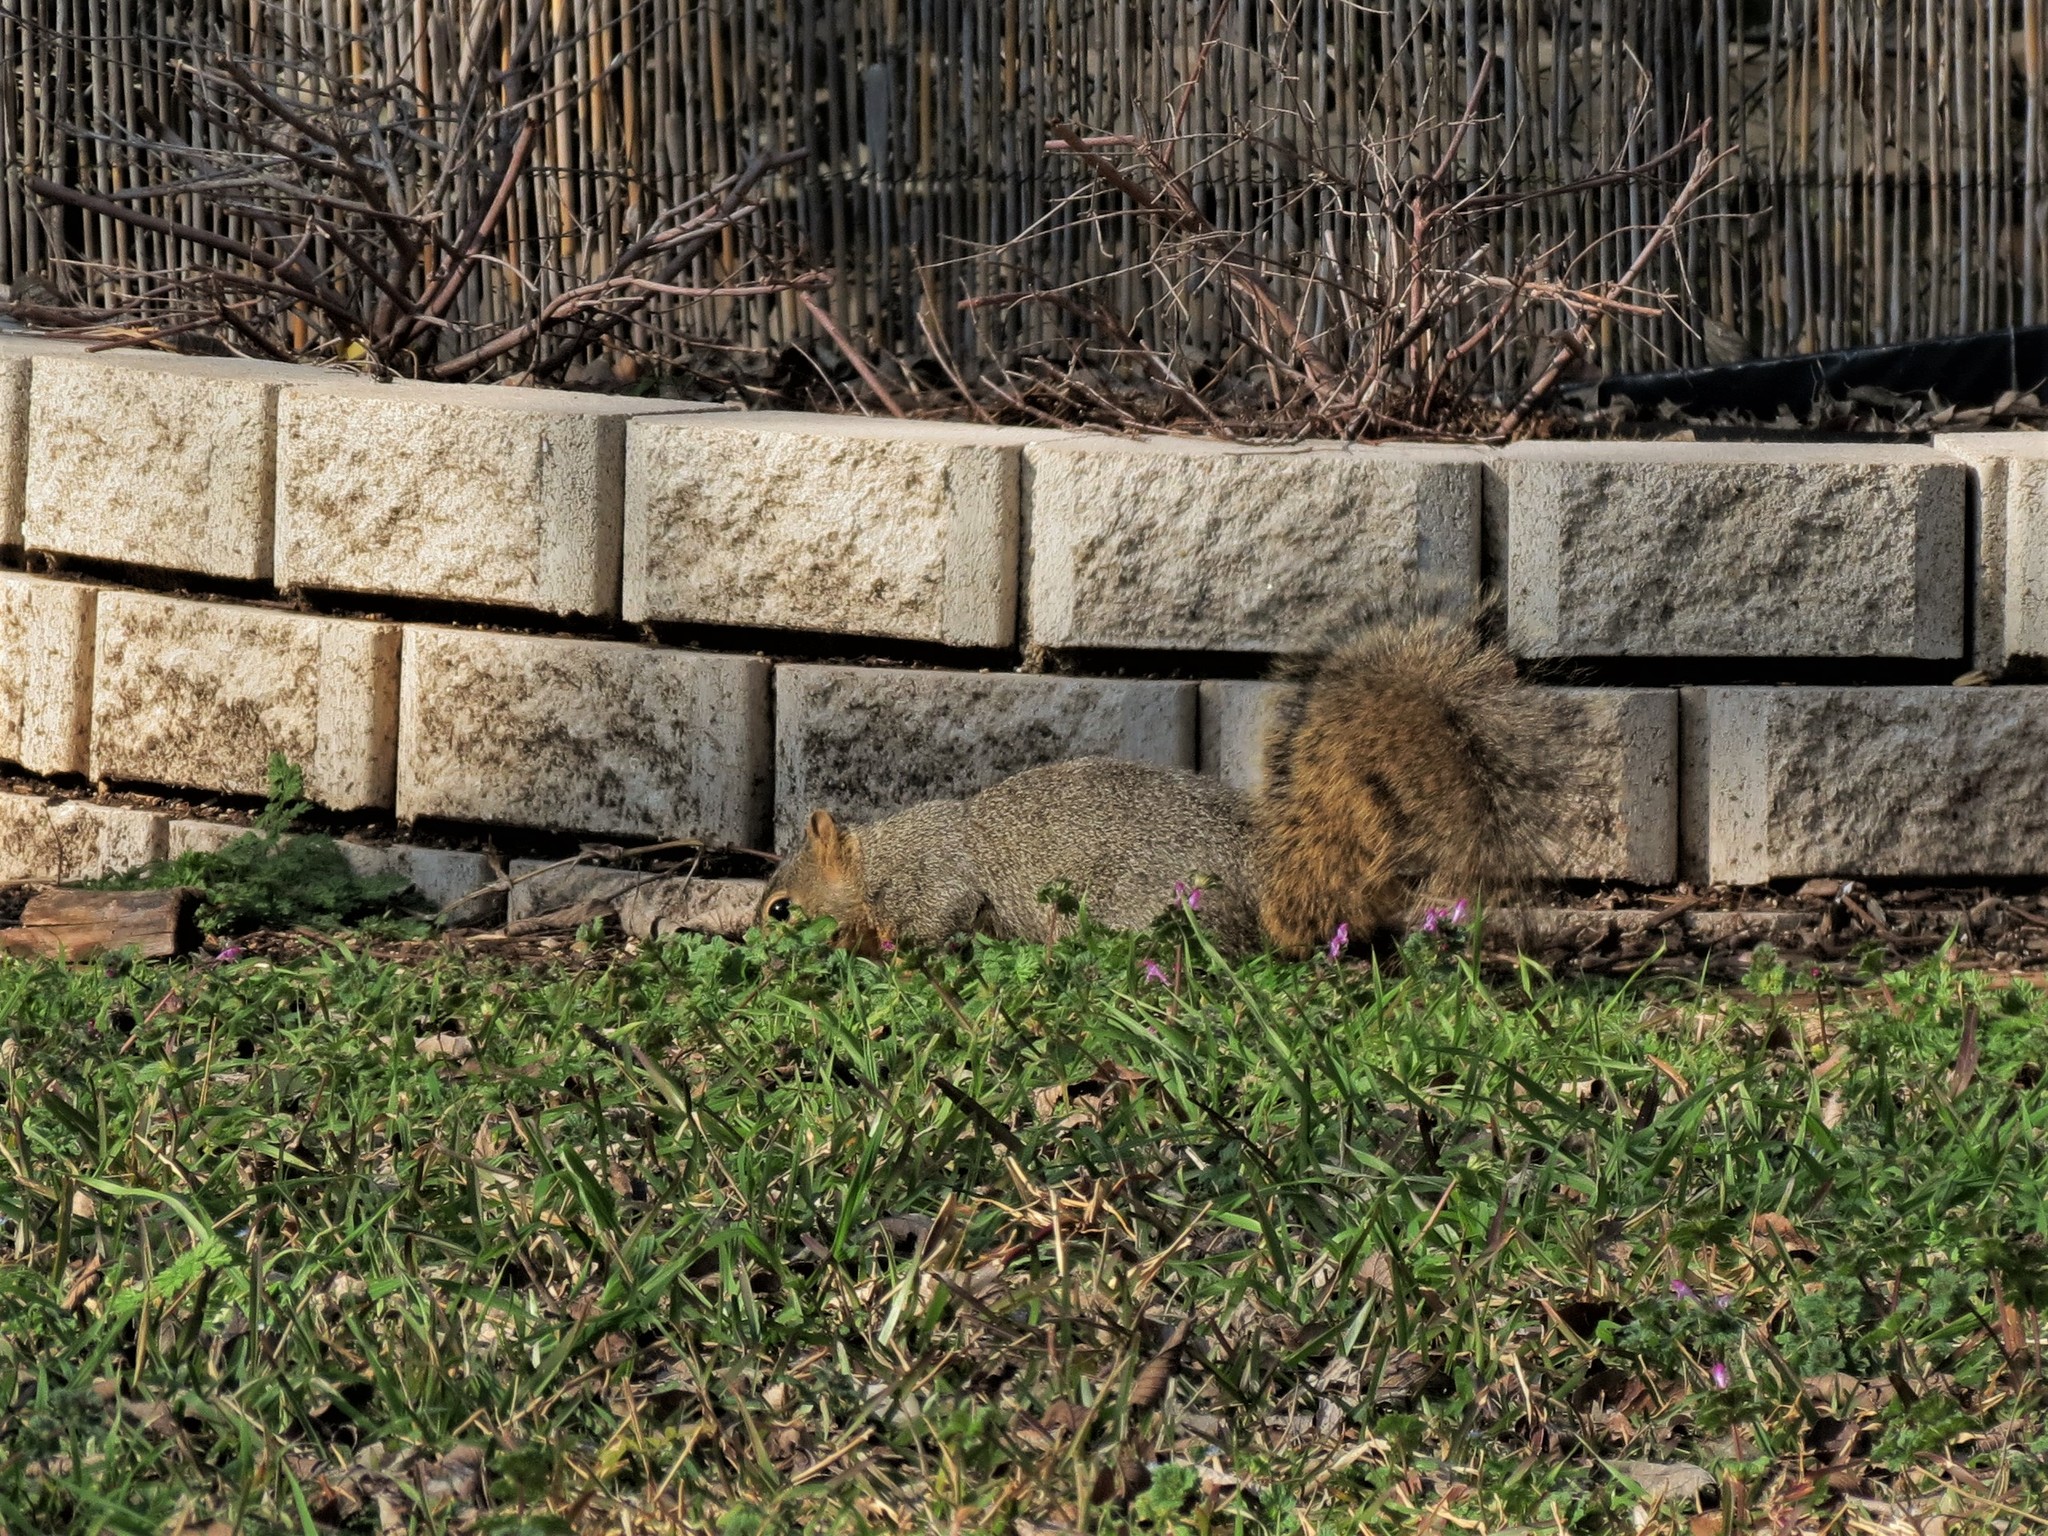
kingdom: Animalia
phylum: Chordata
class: Mammalia
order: Rodentia
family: Sciuridae
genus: Sciurus
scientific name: Sciurus niger
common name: Fox squirrel
